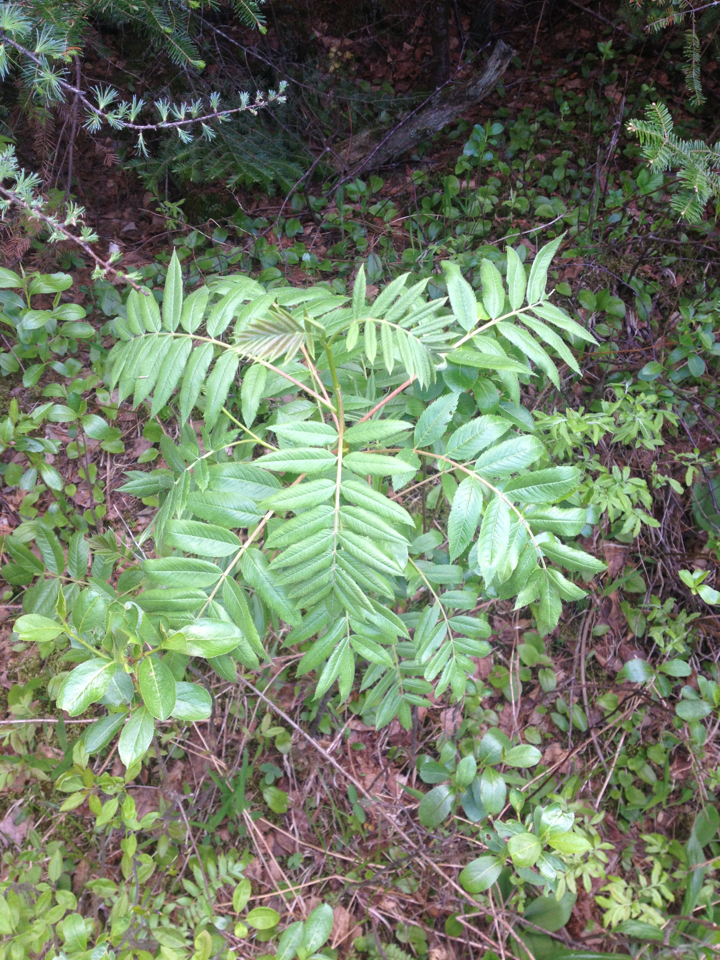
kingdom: Plantae
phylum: Tracheophyta
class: Magnoliopsida
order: Rosales
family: Rosaceae
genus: Sorbus
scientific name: Sorbus americana
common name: American mountain-ash
